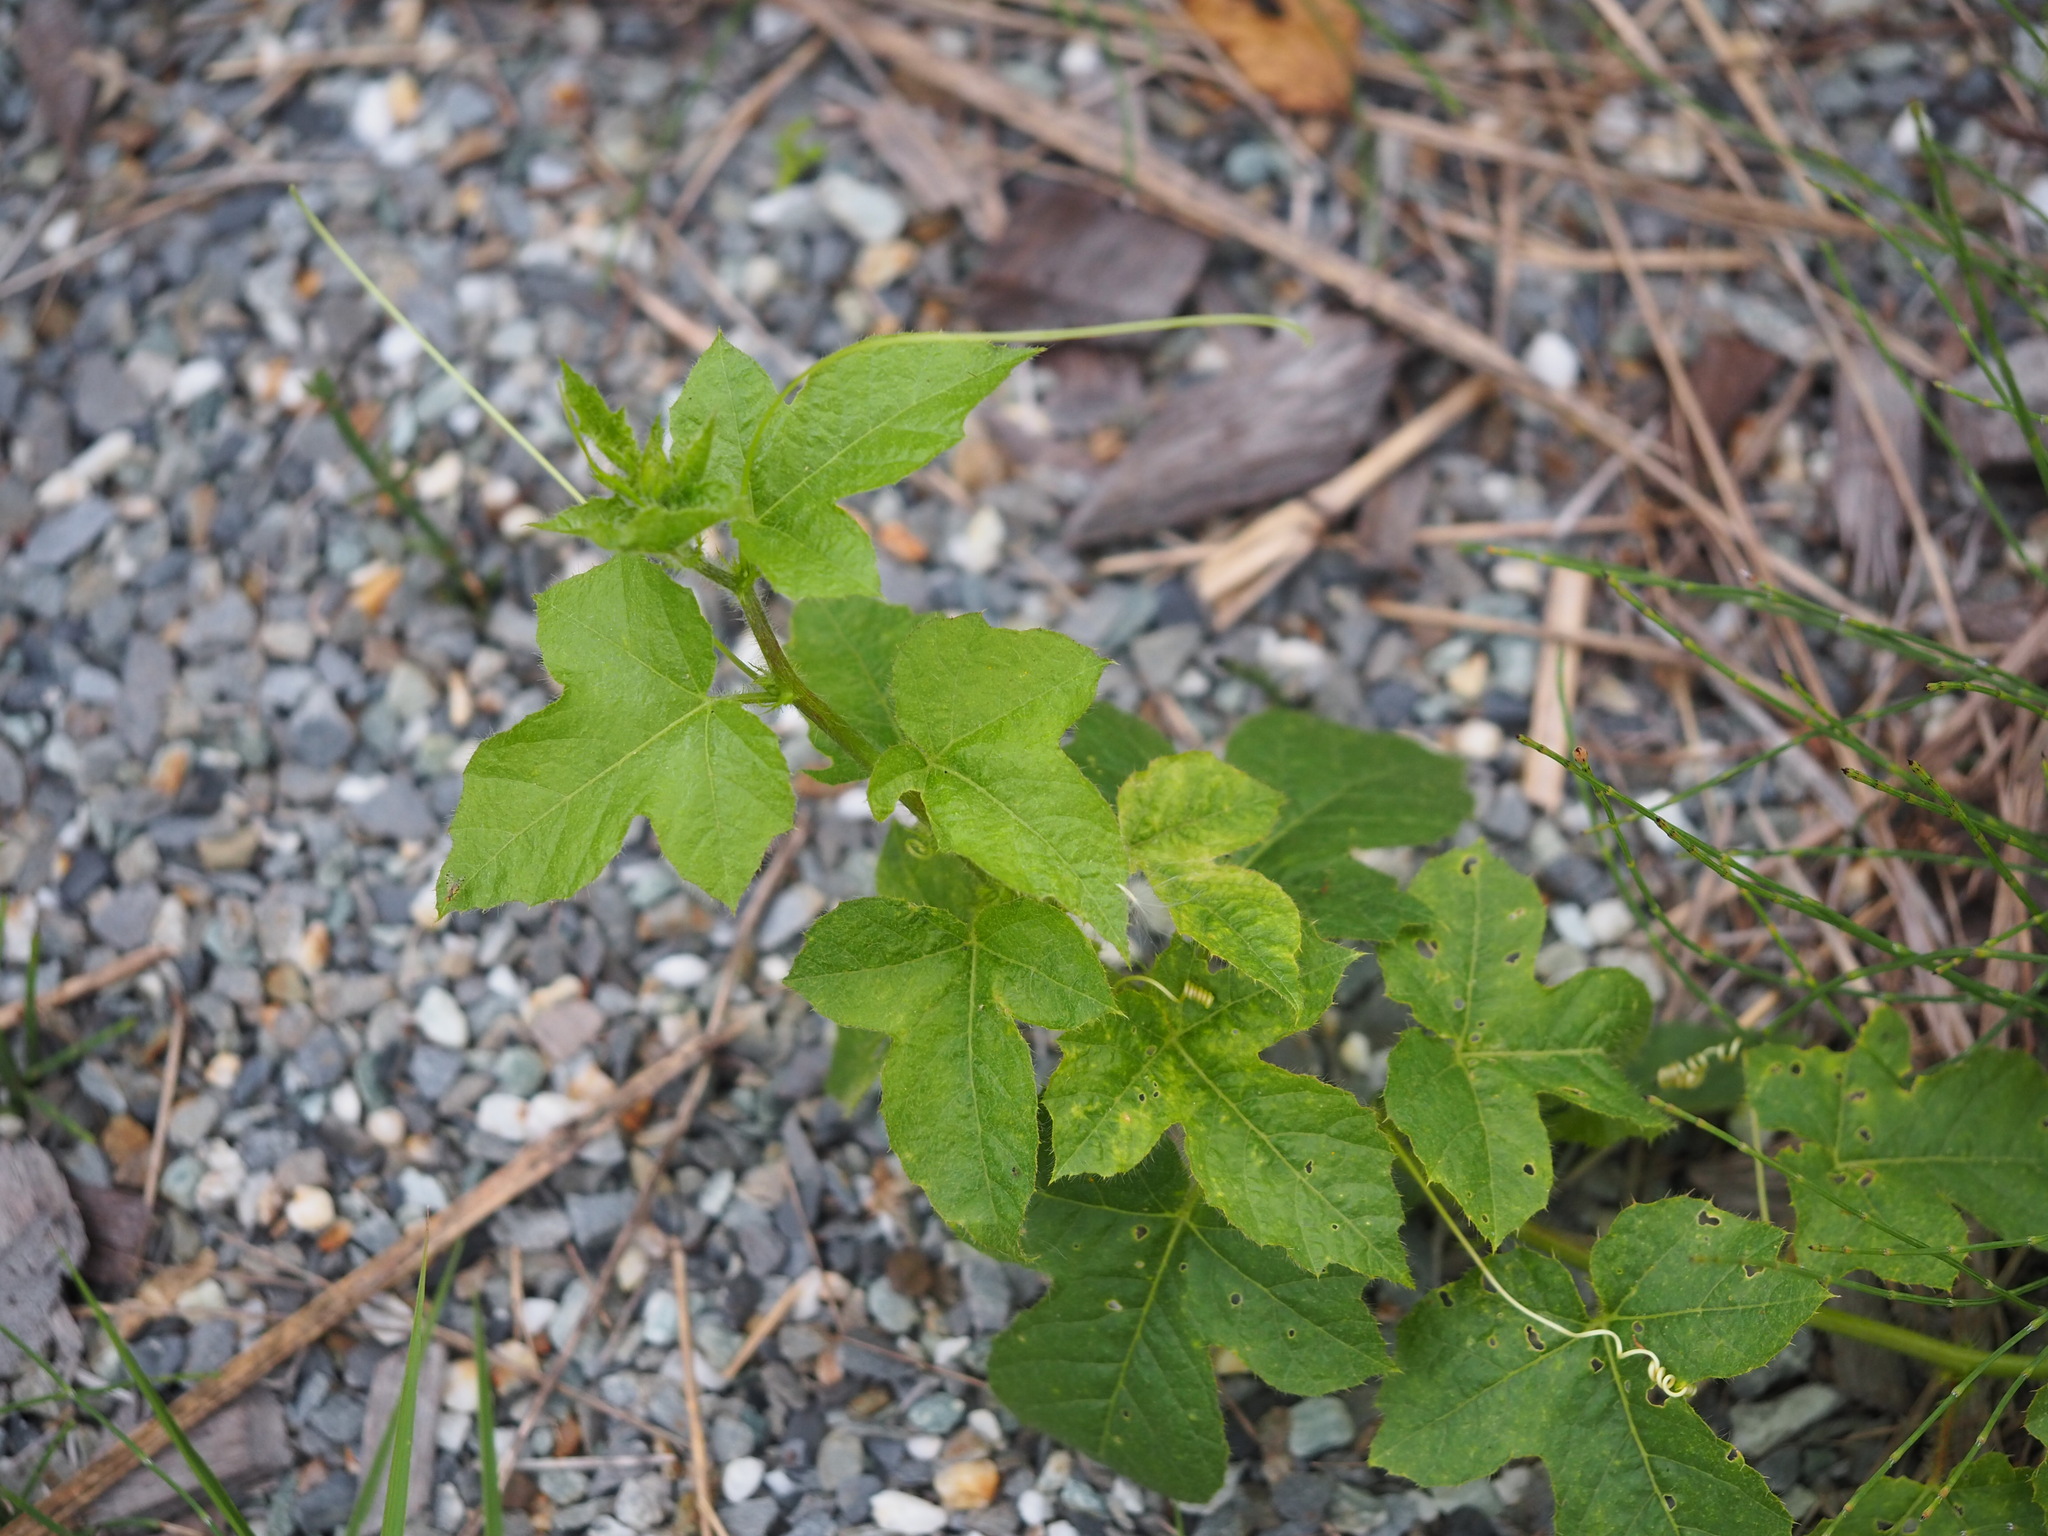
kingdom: Plantae
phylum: Tracheophyta
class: Magnoliopsida
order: Malpighiales
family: Passifloraceae
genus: Passiflora
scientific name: Passiflora vesicaria
